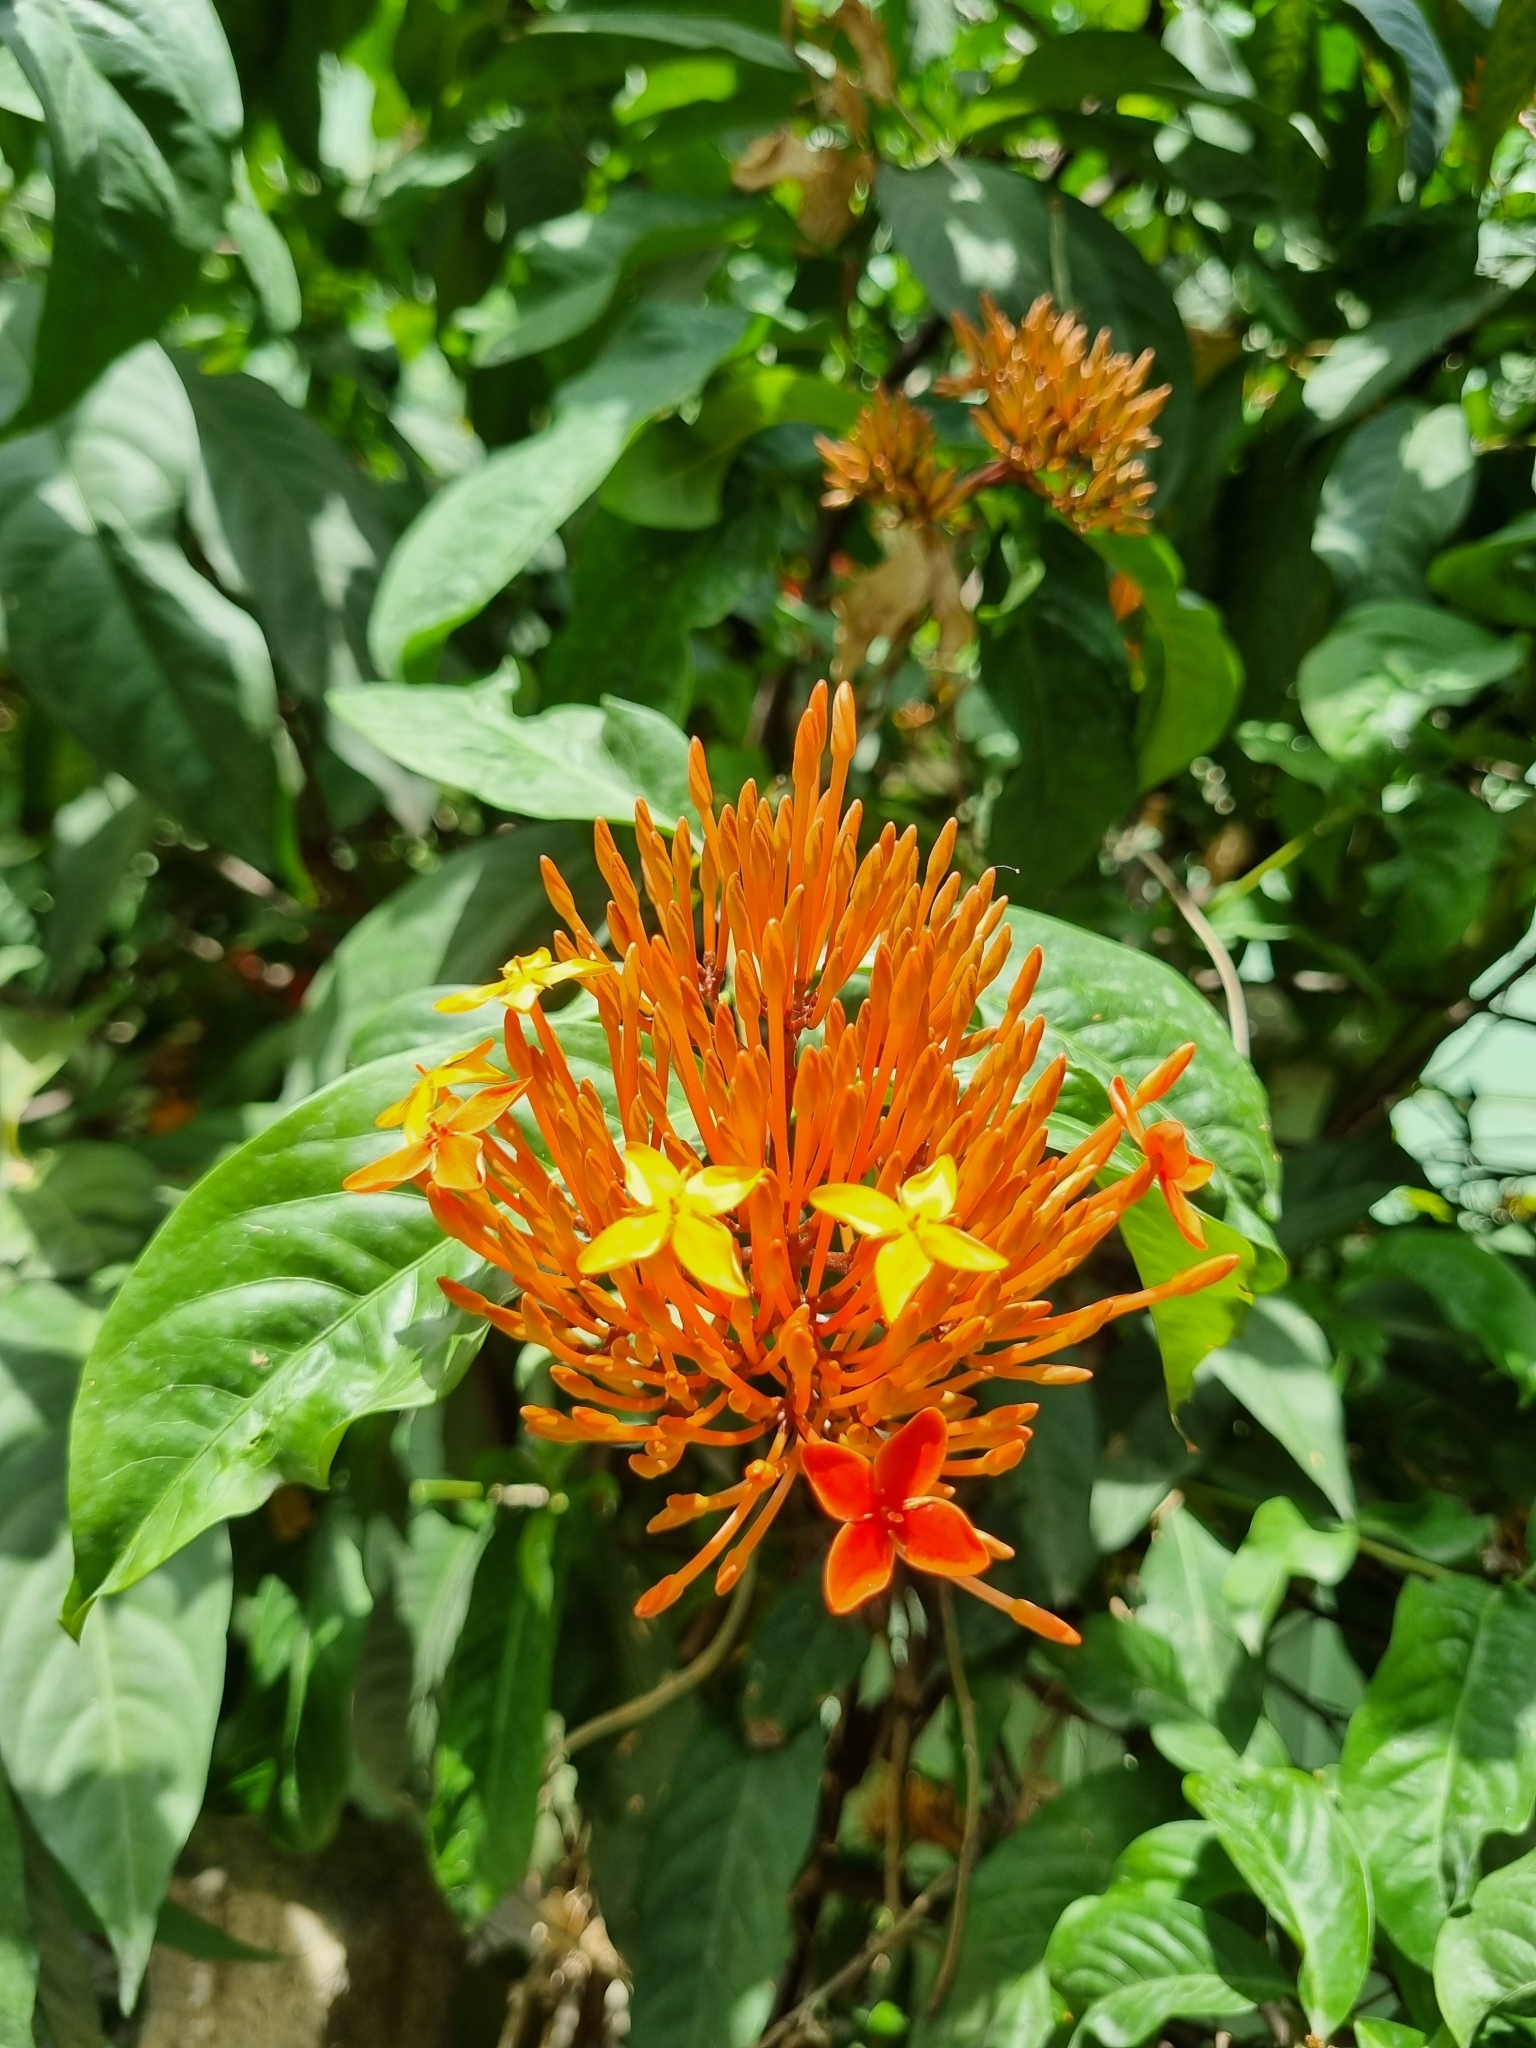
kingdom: Plantae
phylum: Tracheophyta
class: Magnoliopsida
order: Gentianales
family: Rubiaceae
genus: Ixora
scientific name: Ixora coccinea
